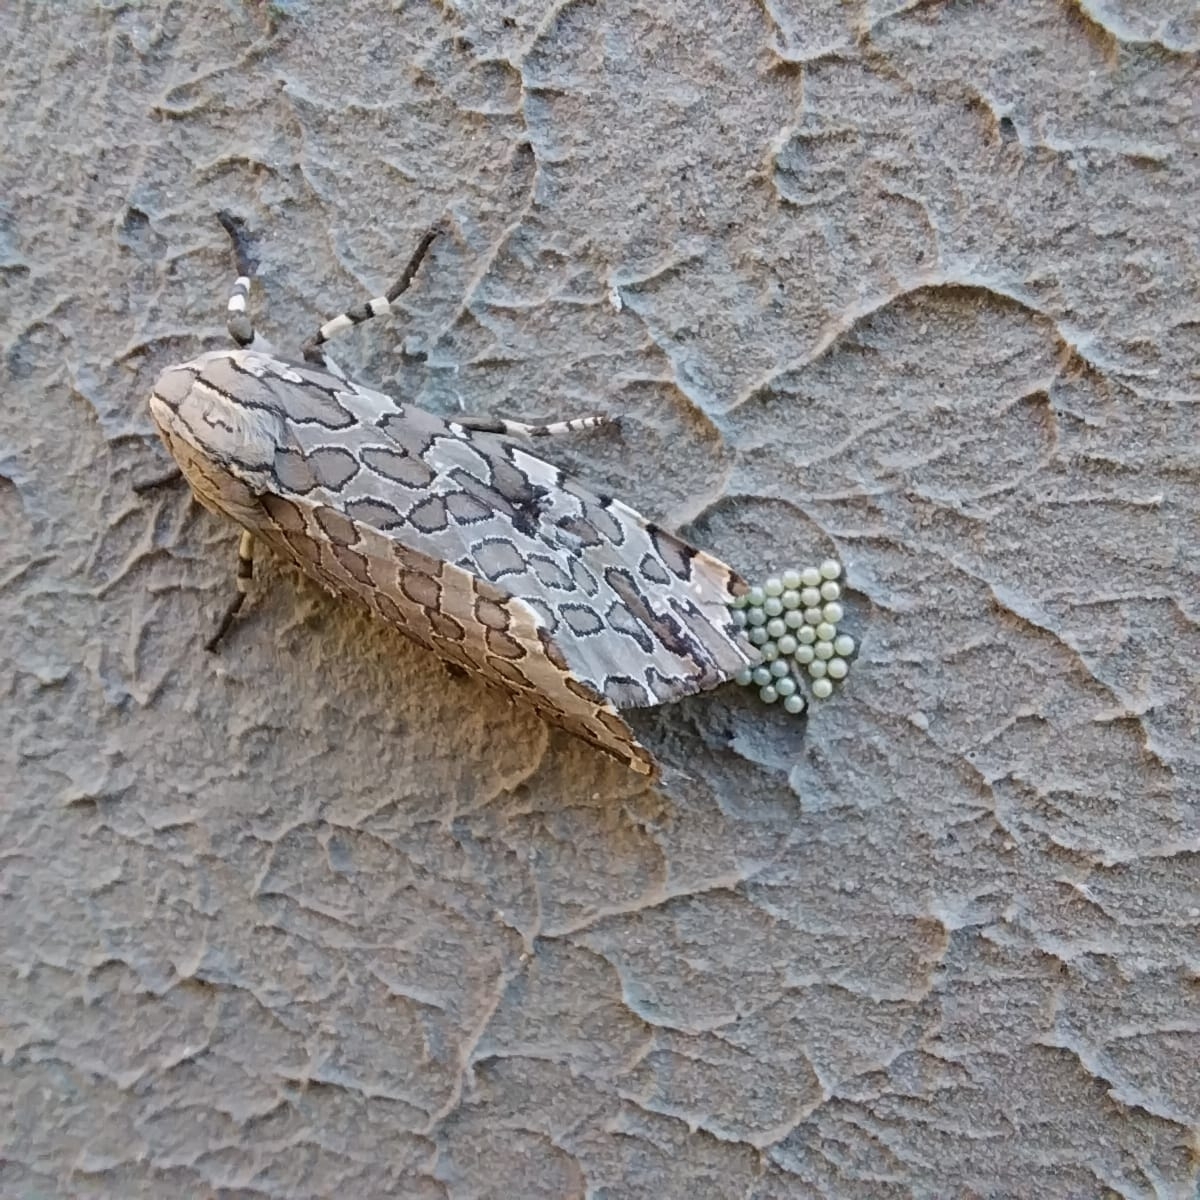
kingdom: Animalia
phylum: Arthropoda
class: Insecta
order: Lepidoptera
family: Erebidae
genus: Hypercompe
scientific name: Hypercompe indecisa
